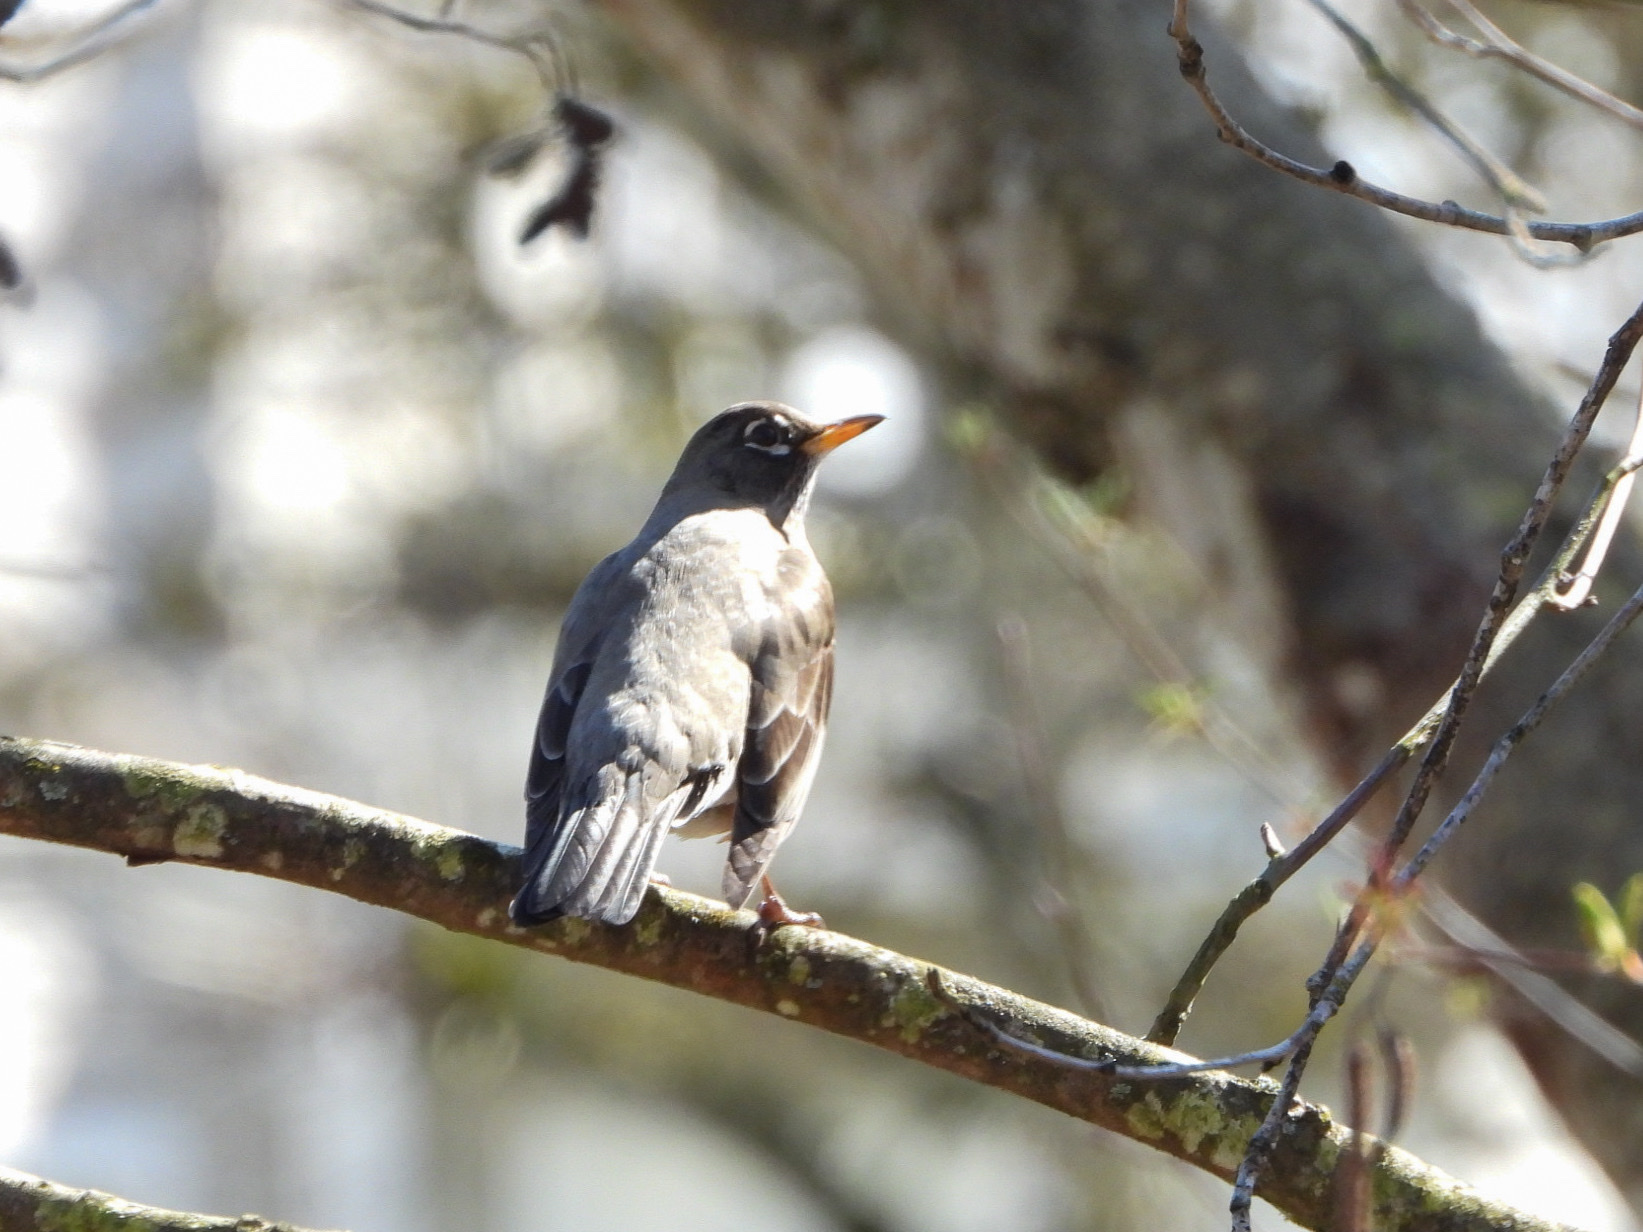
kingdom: Animalia
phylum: Chordata
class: Aves
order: Passeriformes
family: Turdidae
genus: Turdus
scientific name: Turdus migratorius
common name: American robin
